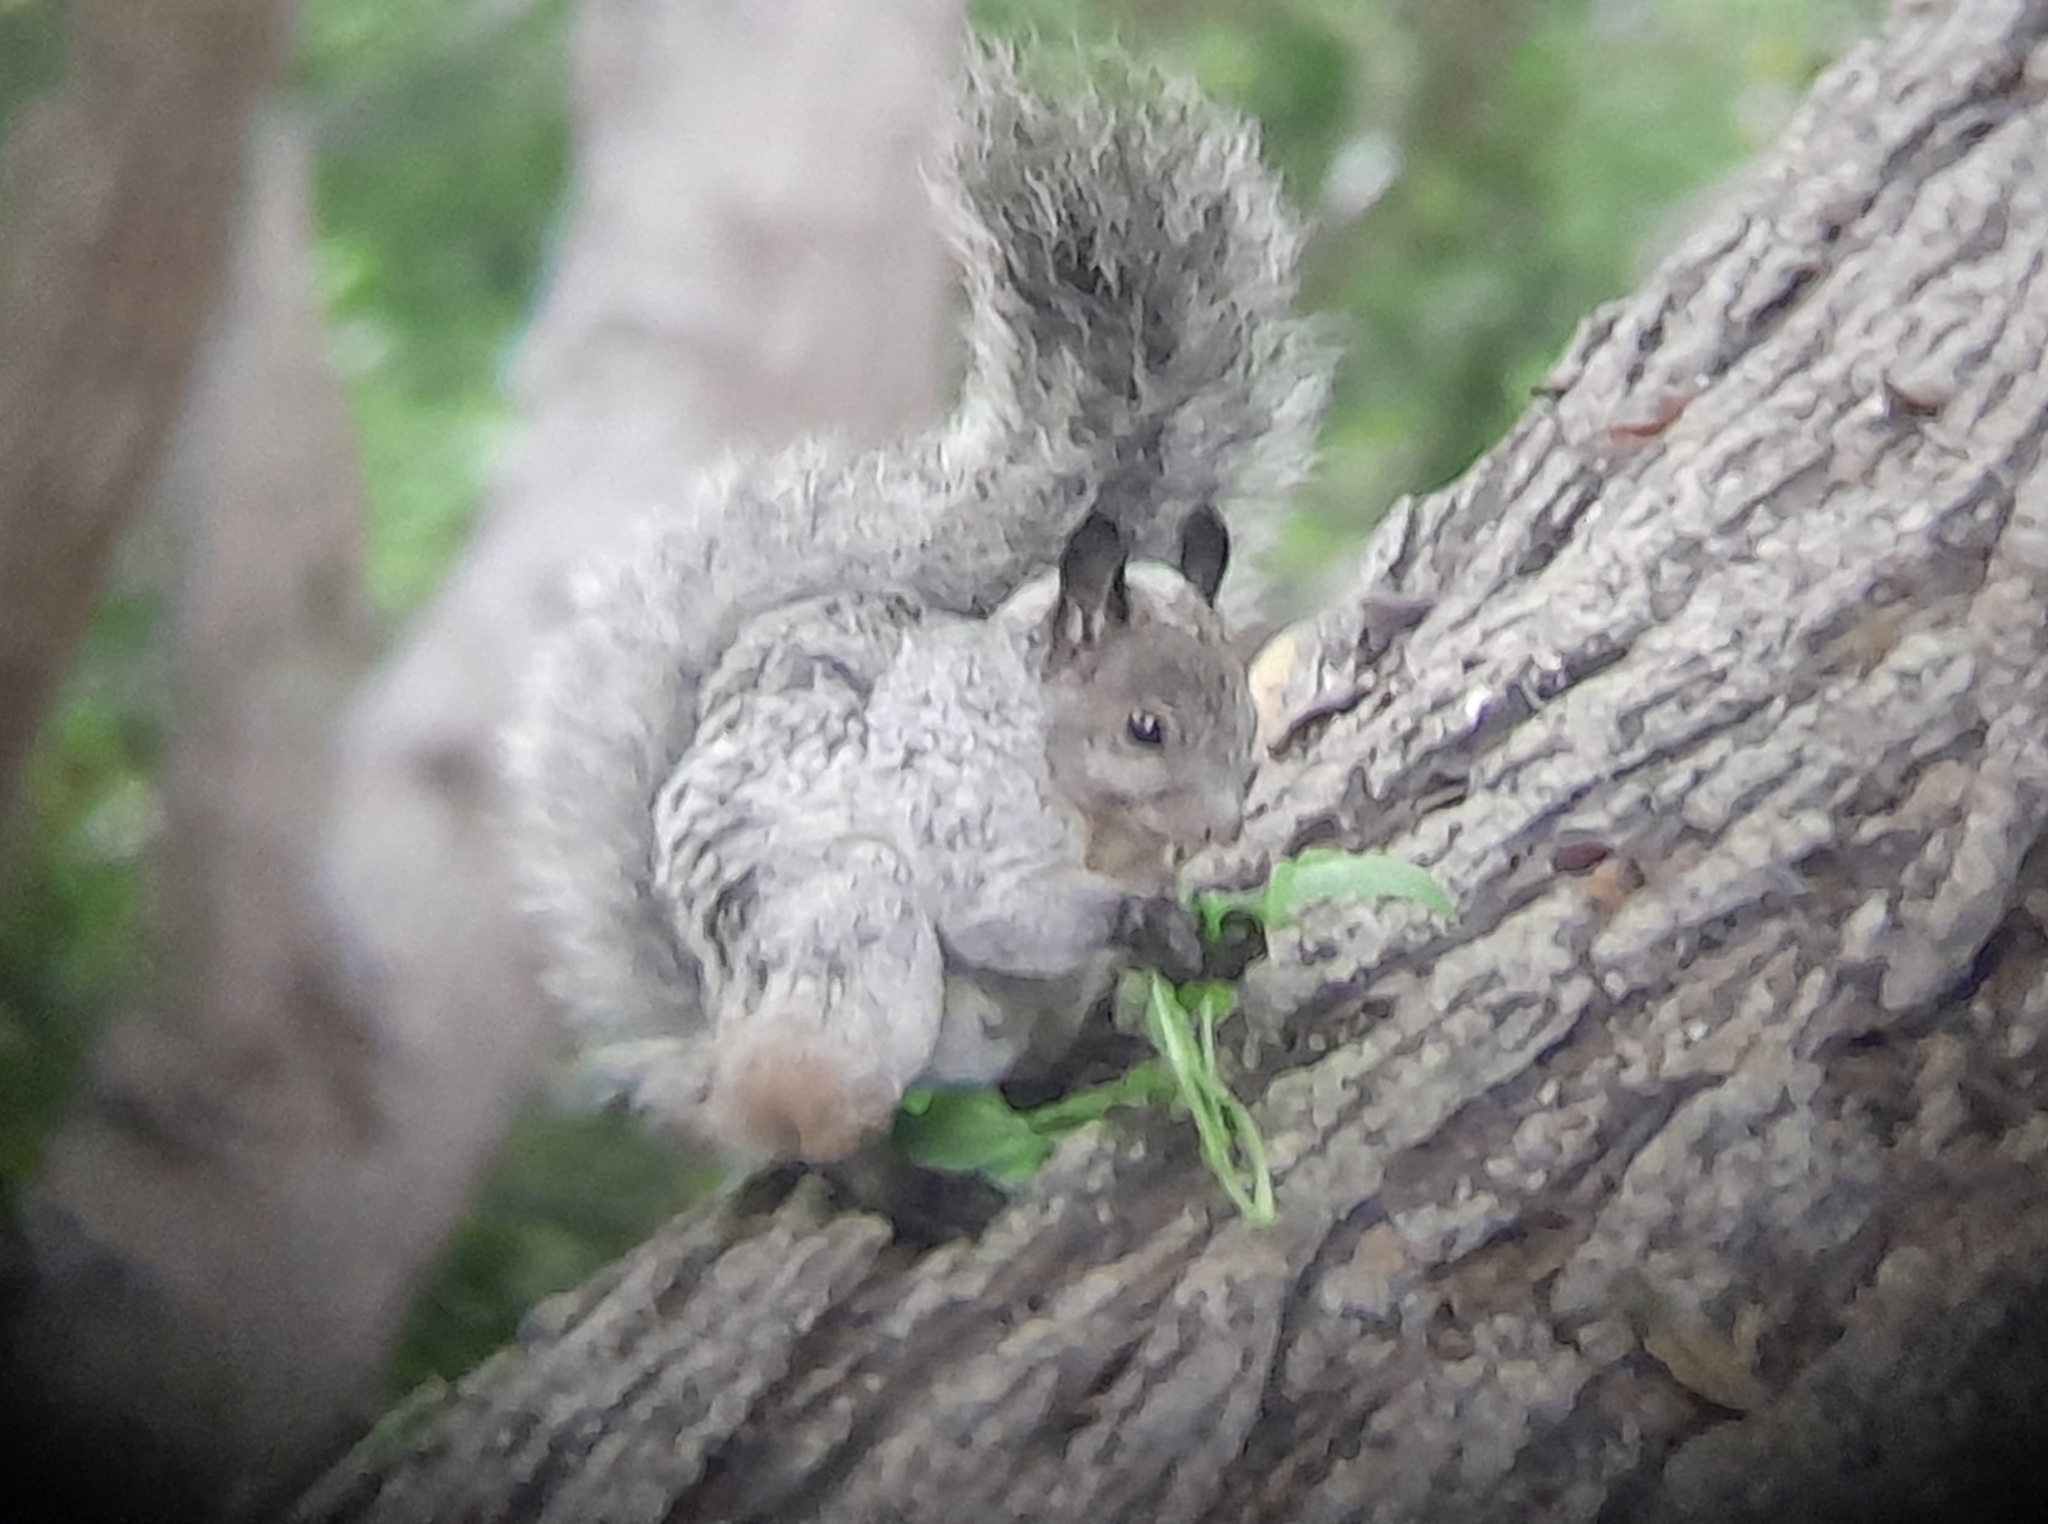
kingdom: Animalia
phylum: Chordata
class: Mammalia
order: Rodentia
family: Sciuridae
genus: Sciurus
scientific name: Sciurus stramineus
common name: Guayaquil squirrel
